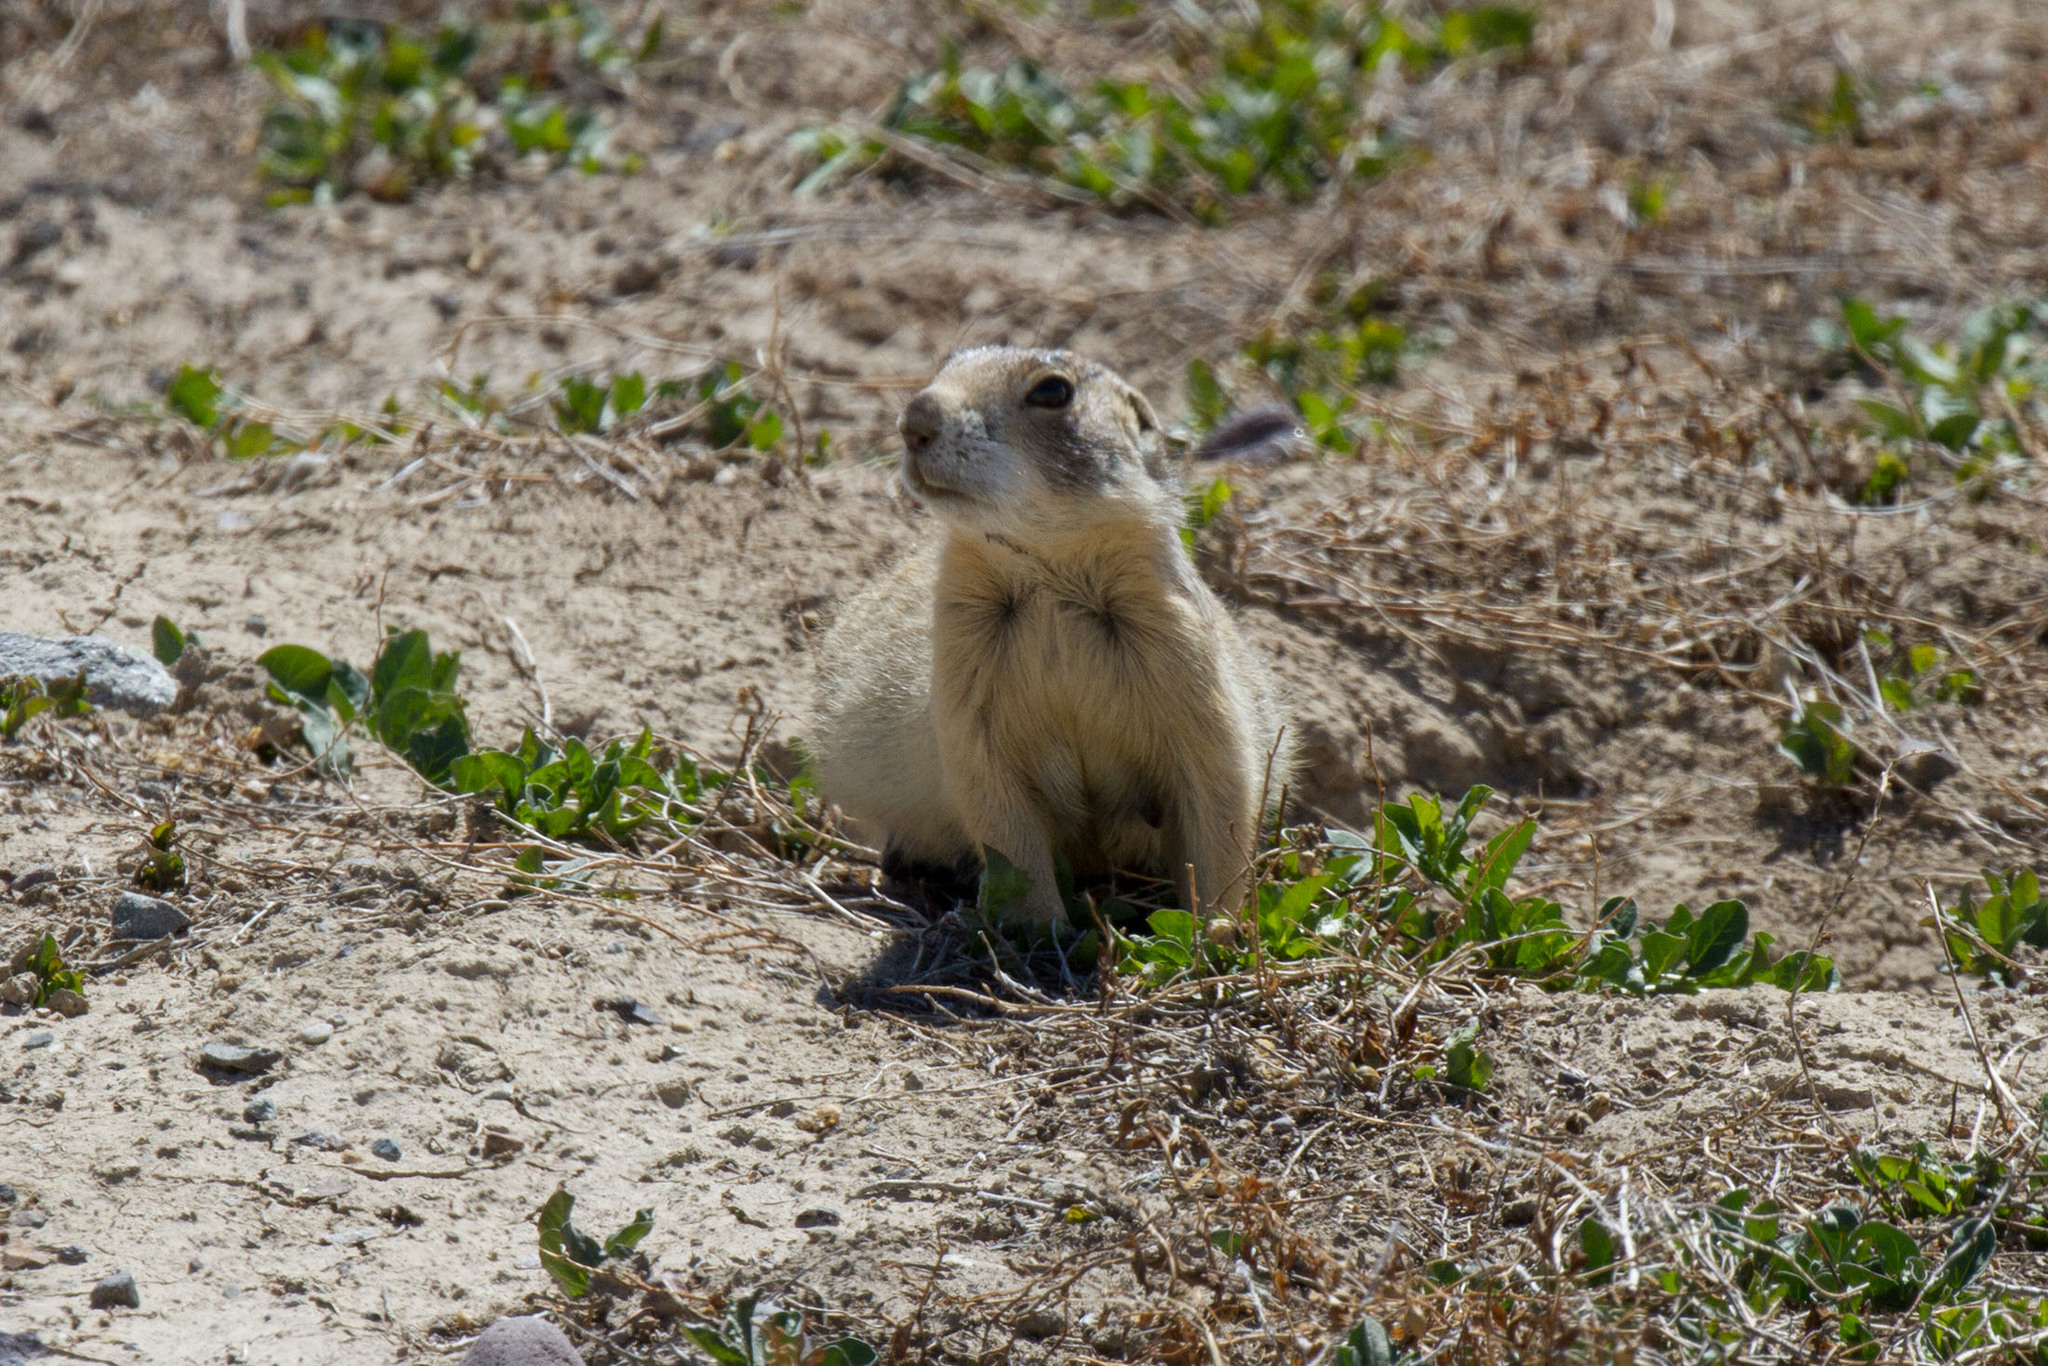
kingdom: Animalia
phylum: Chordata
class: Mammalia
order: Rodentia
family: Sciuridae
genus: Cynomys
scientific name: Cynomys leucurus
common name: White-tailed prairie dog
